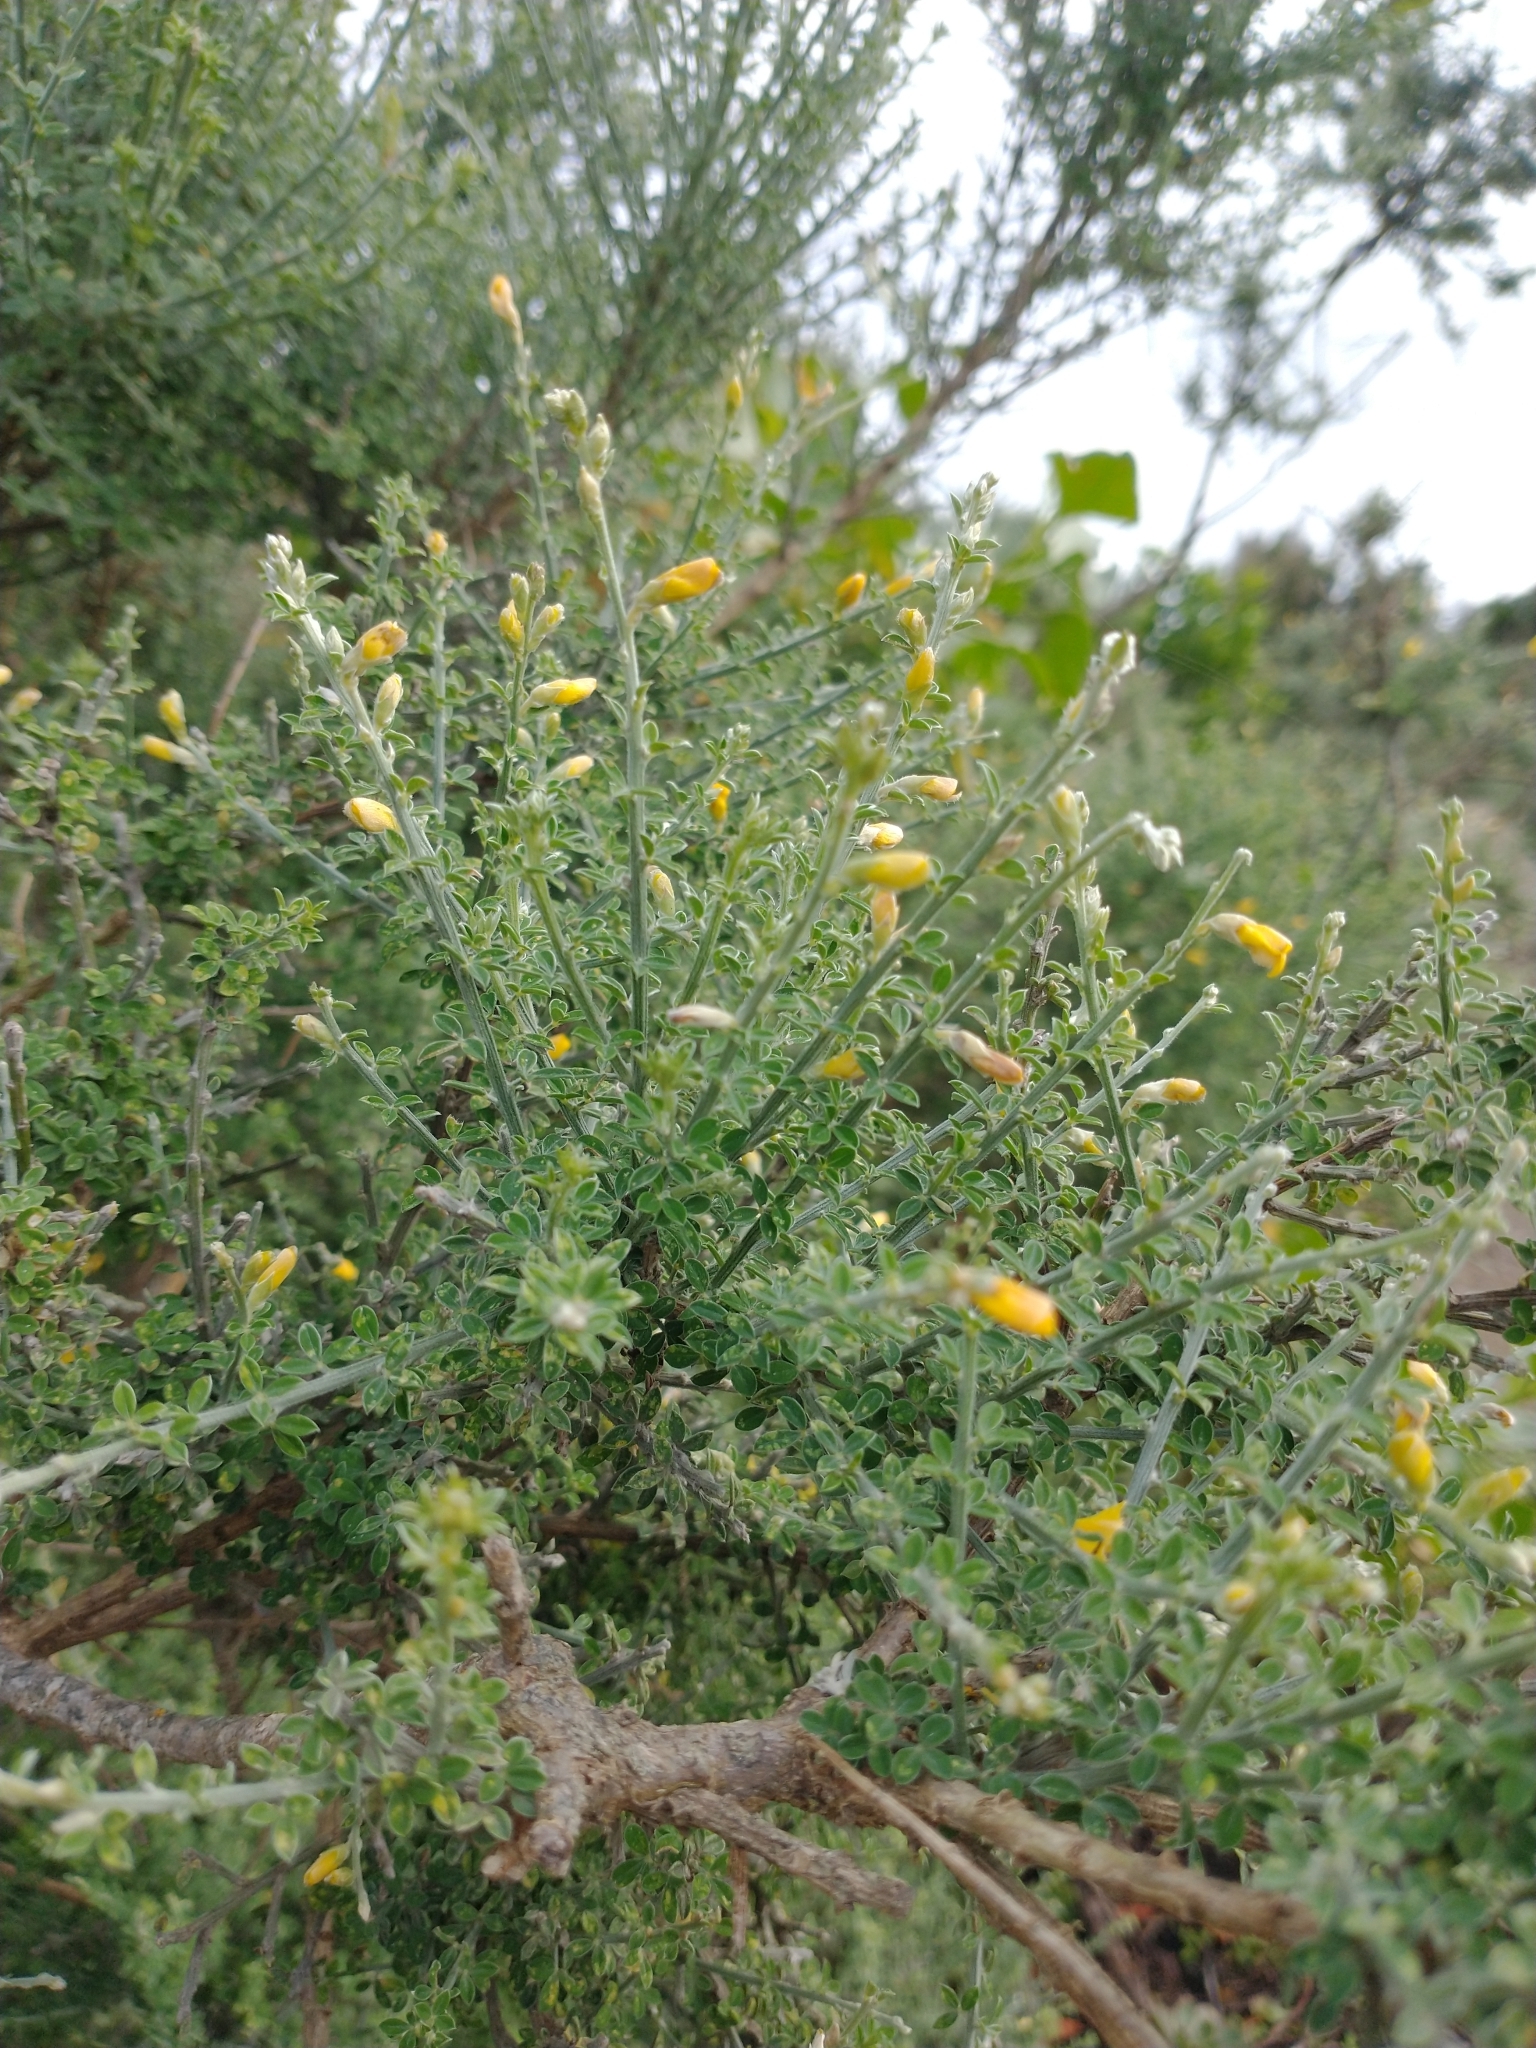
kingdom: Plantae
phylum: Tracheophyta
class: Magnoliopsida
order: Fabales
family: Fabaceae
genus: Genista
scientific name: Genista canariensis
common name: Canary broom
